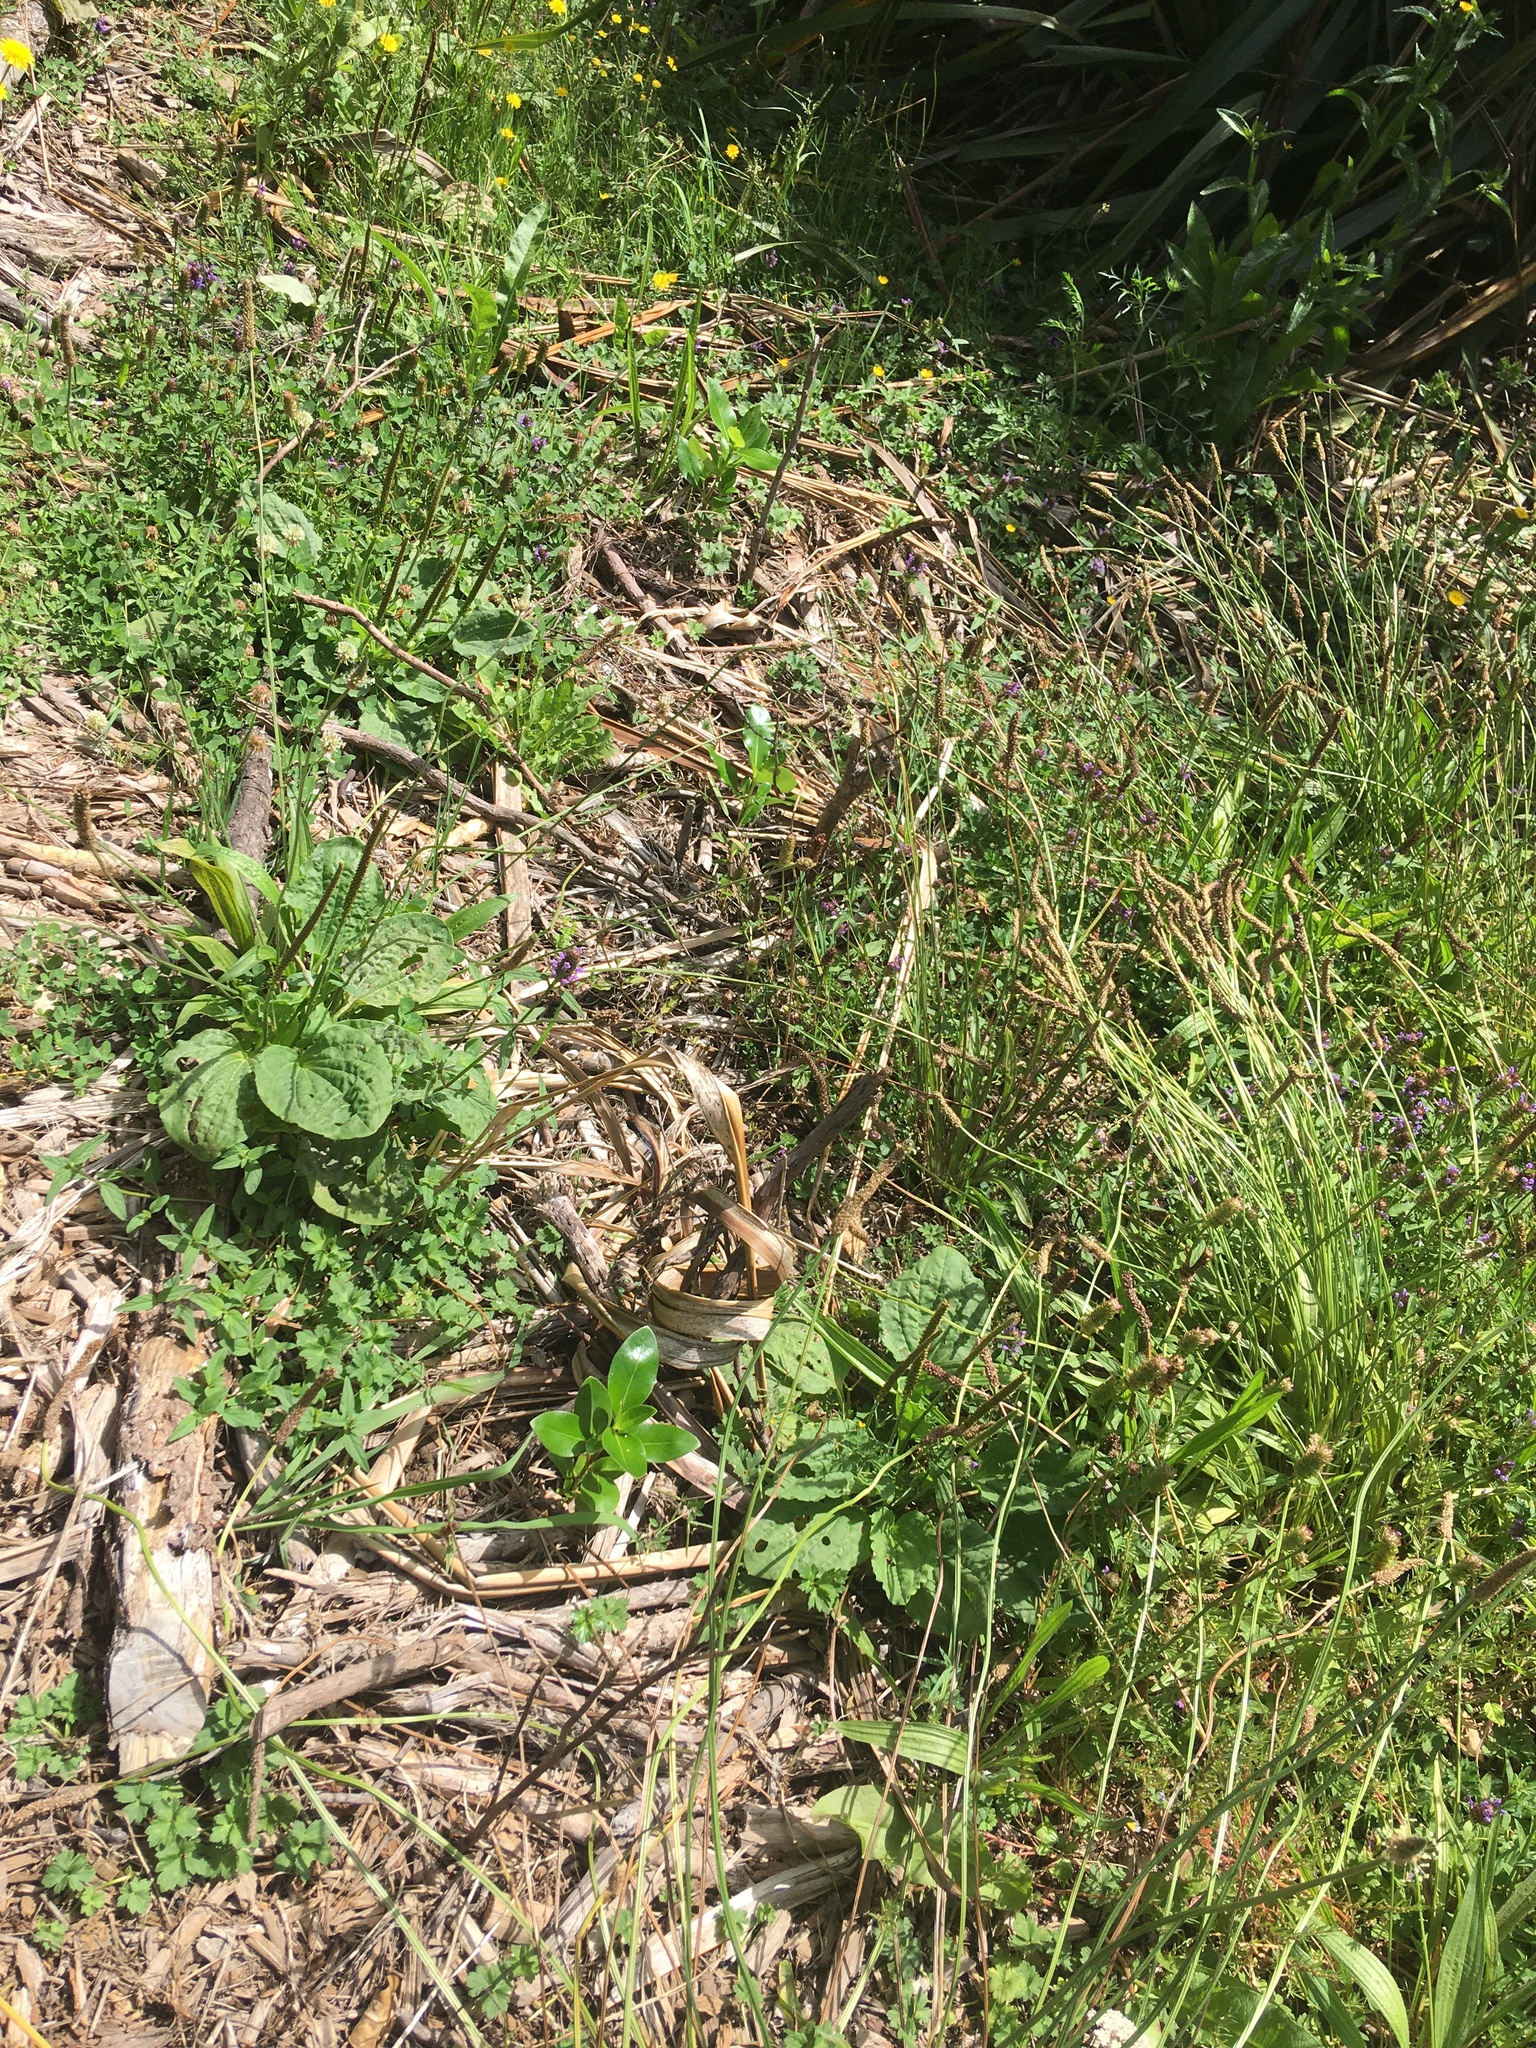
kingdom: Plantae
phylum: Tracheophyta
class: Magnoliopsida
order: Lamiales
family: Plantaginaceae
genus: Plantago
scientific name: Plantago major
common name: Common plantain
